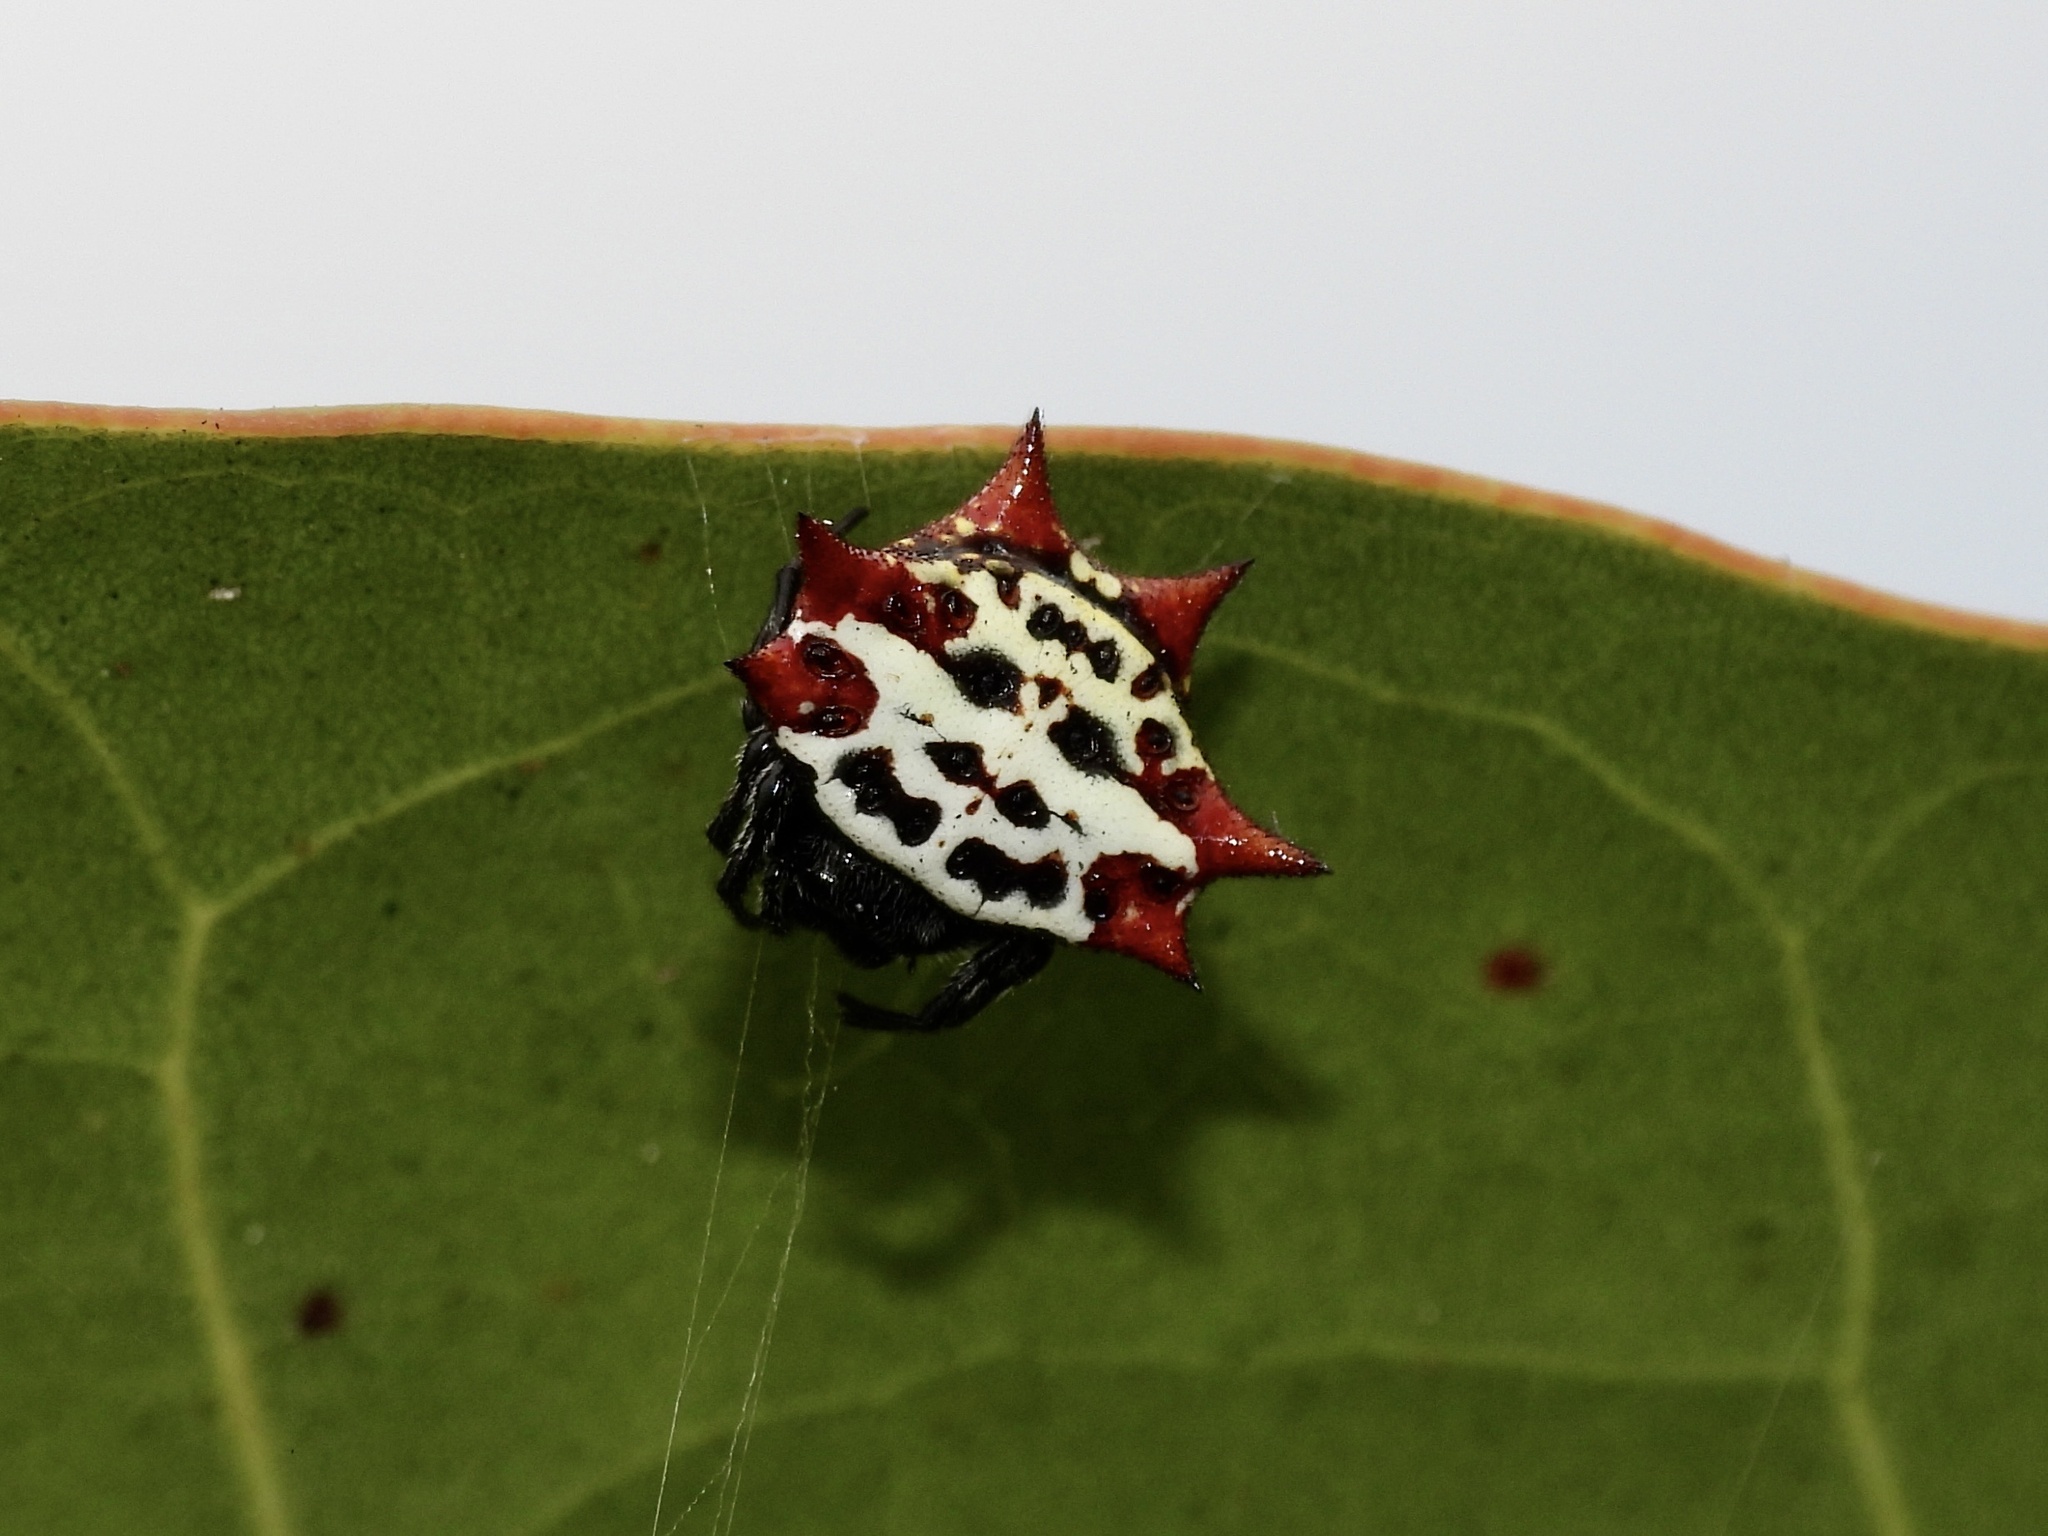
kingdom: Animalia
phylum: Arthropoda
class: Arachnida
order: Araneae
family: Araneidae
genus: Gasteracantha
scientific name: Gasteracantha cancriformis
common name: Orb weavers
